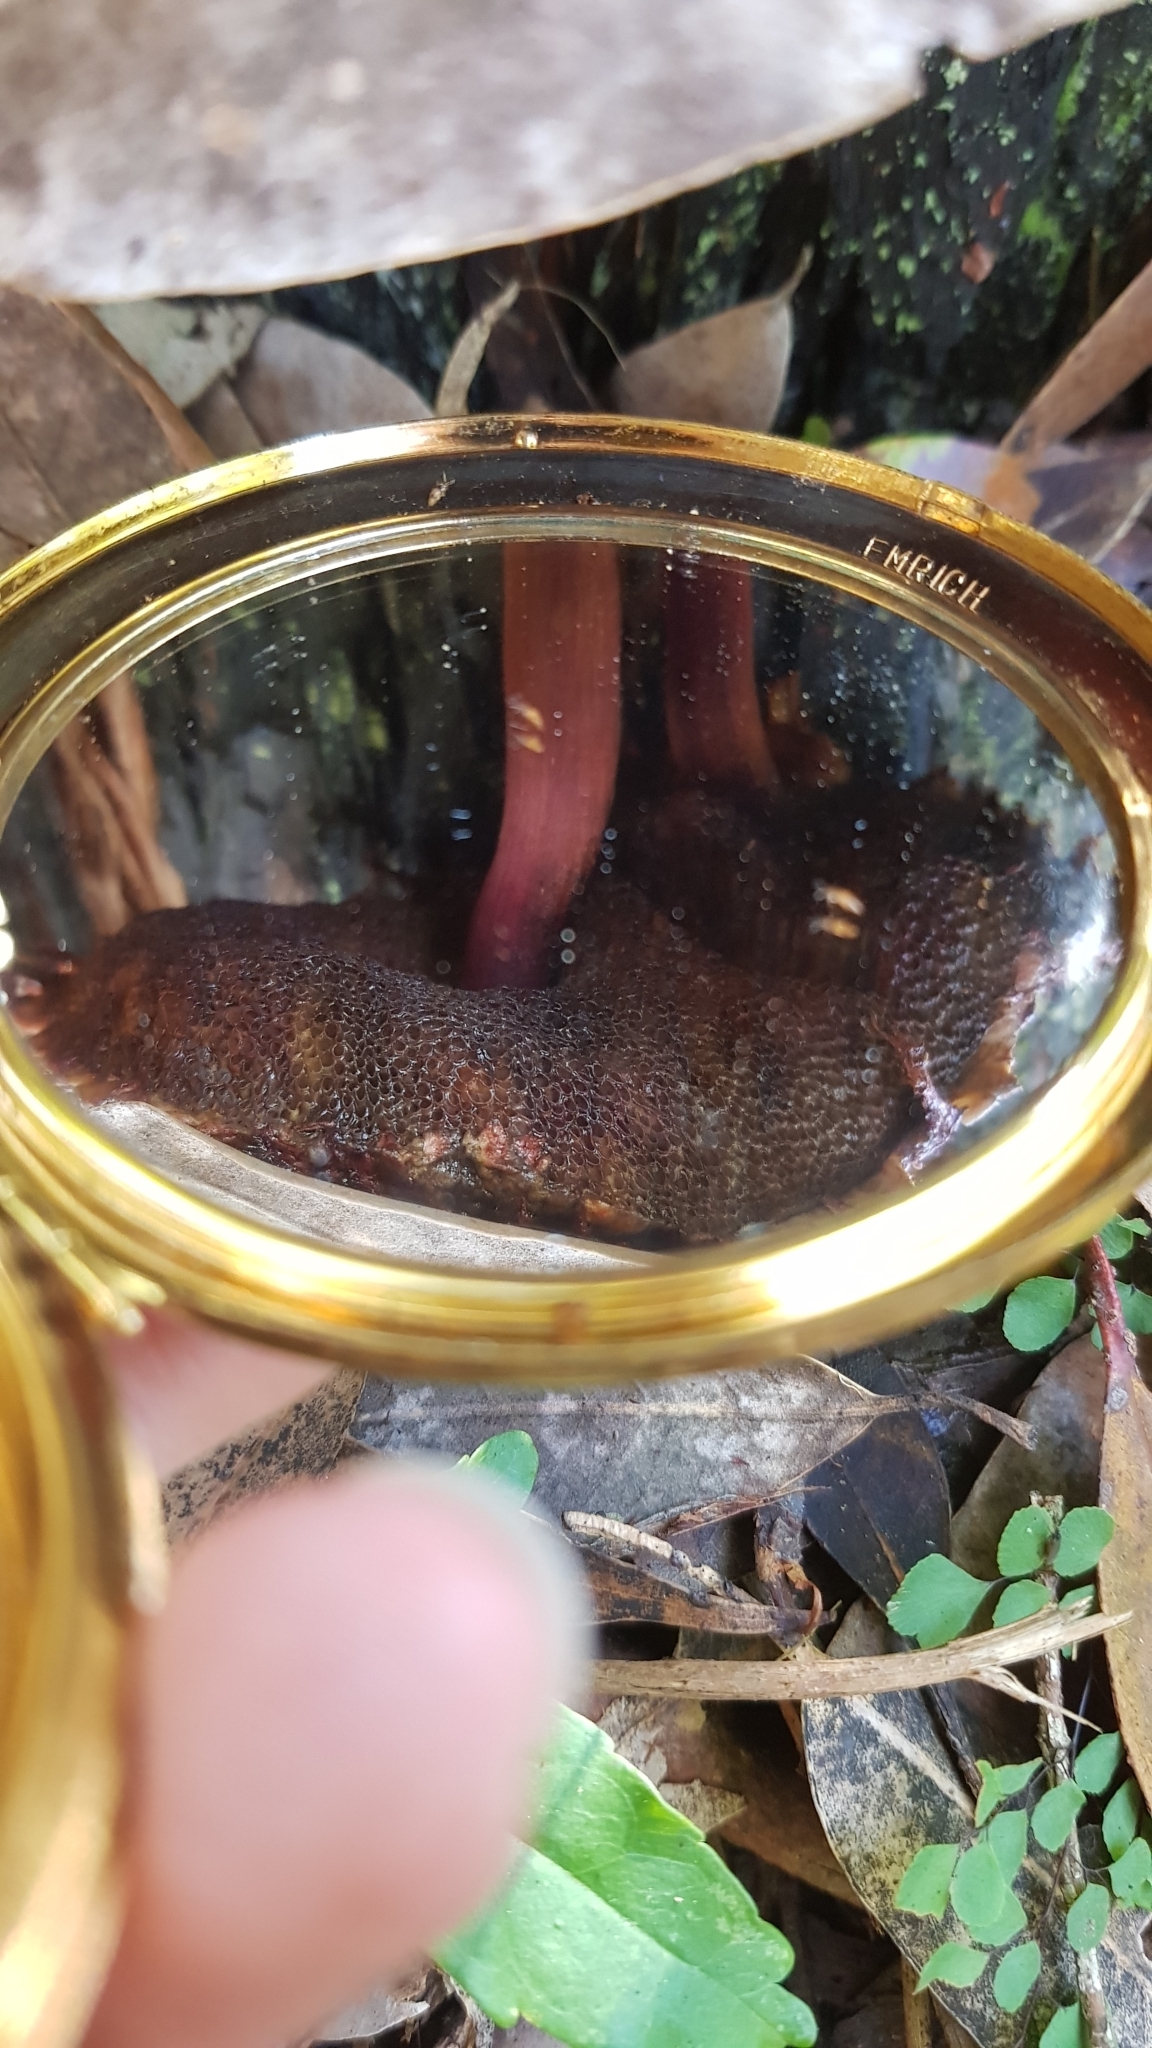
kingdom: Fungi
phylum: Basidiomycota
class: Agaricomycetes
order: Boletales
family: Boletaceae
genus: Boletellus
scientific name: Boletellus emodensis
